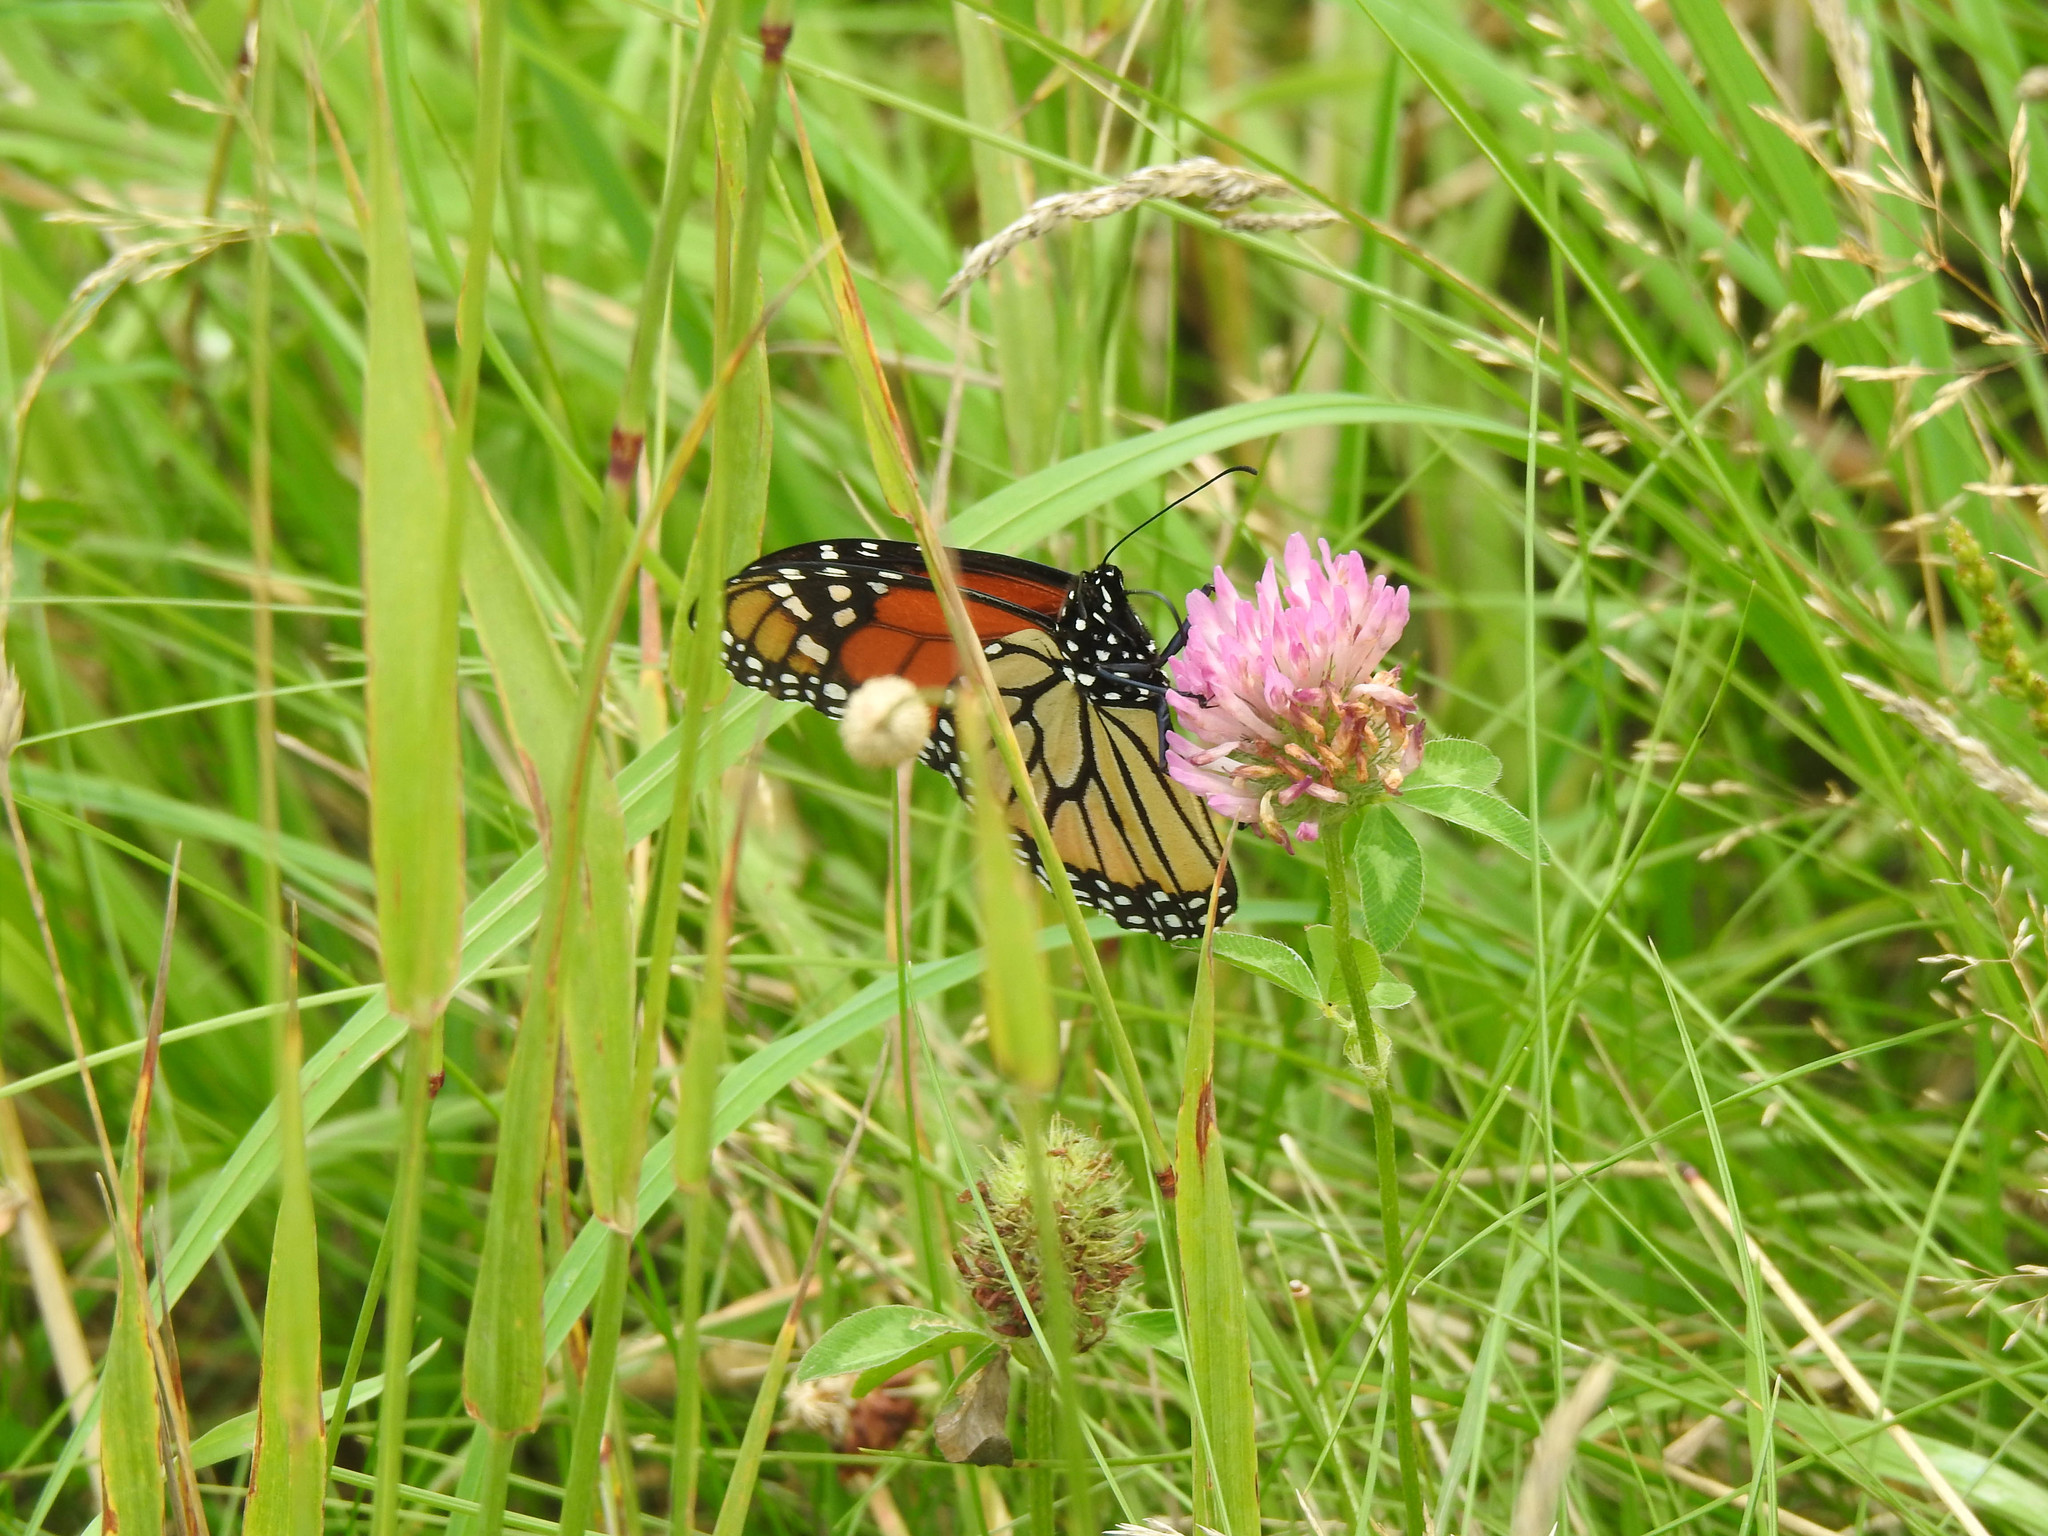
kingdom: Animalia
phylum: Arthropoda
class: Insecta
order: Lepidoptera
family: Nymphalidae
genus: Danaus
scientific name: Danaus plexippus
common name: Monarch
